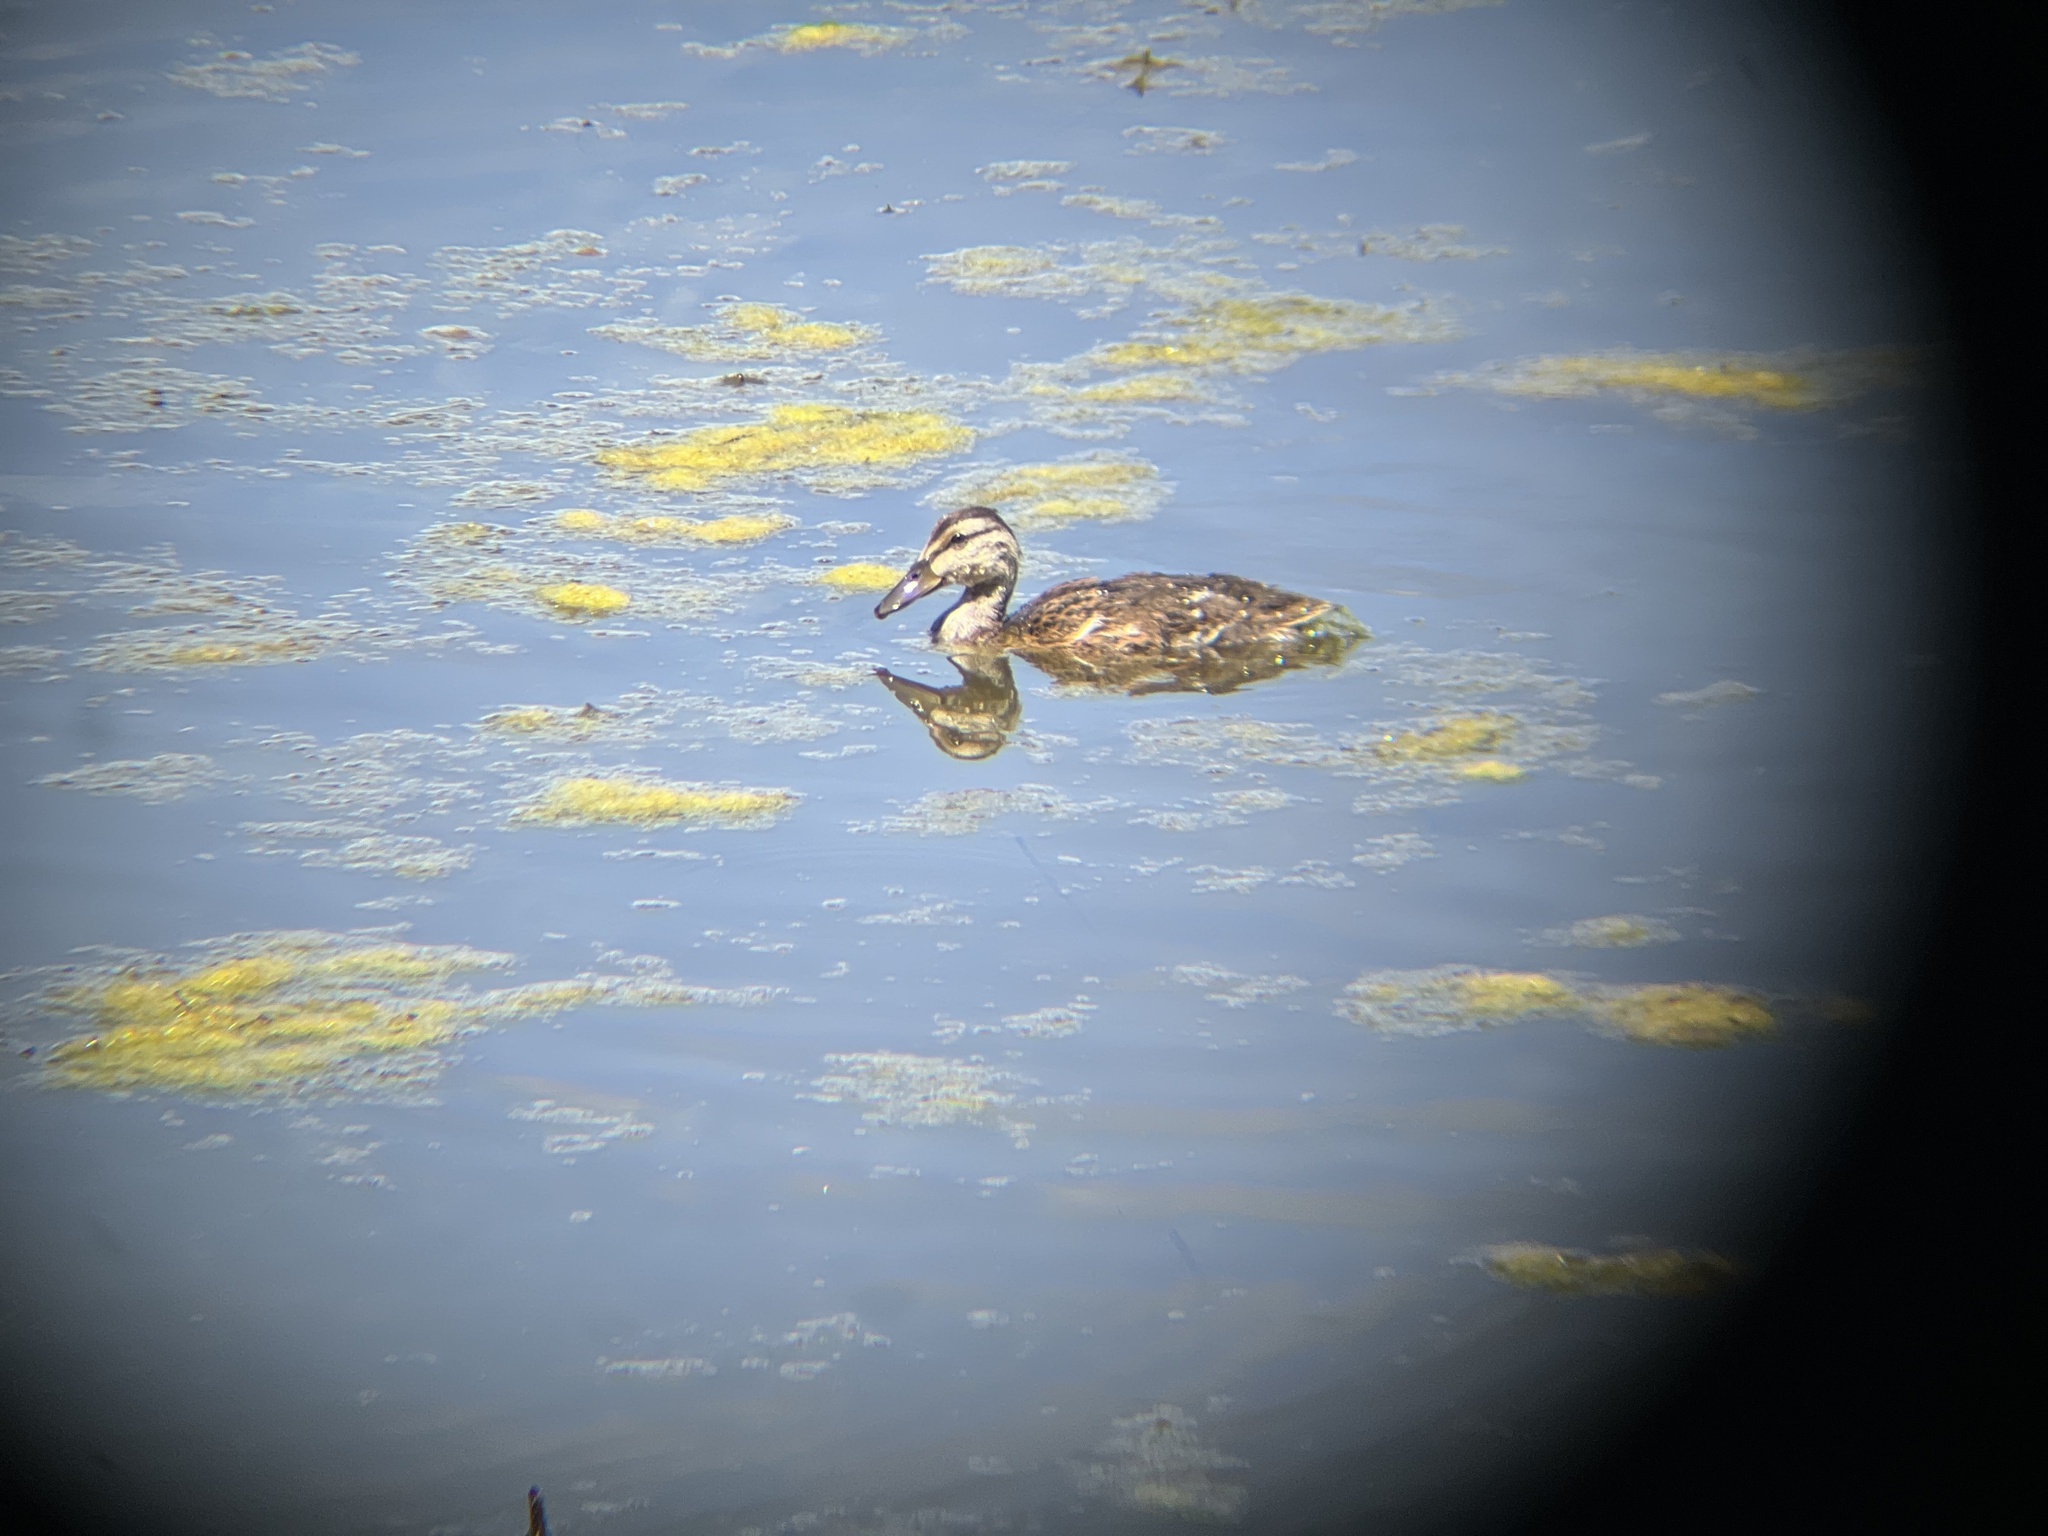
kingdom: Animalia
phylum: Chordata
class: Aves
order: Anseriformes
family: Anatidae
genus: Anas
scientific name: Anas platyrhynchos
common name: Mallard
